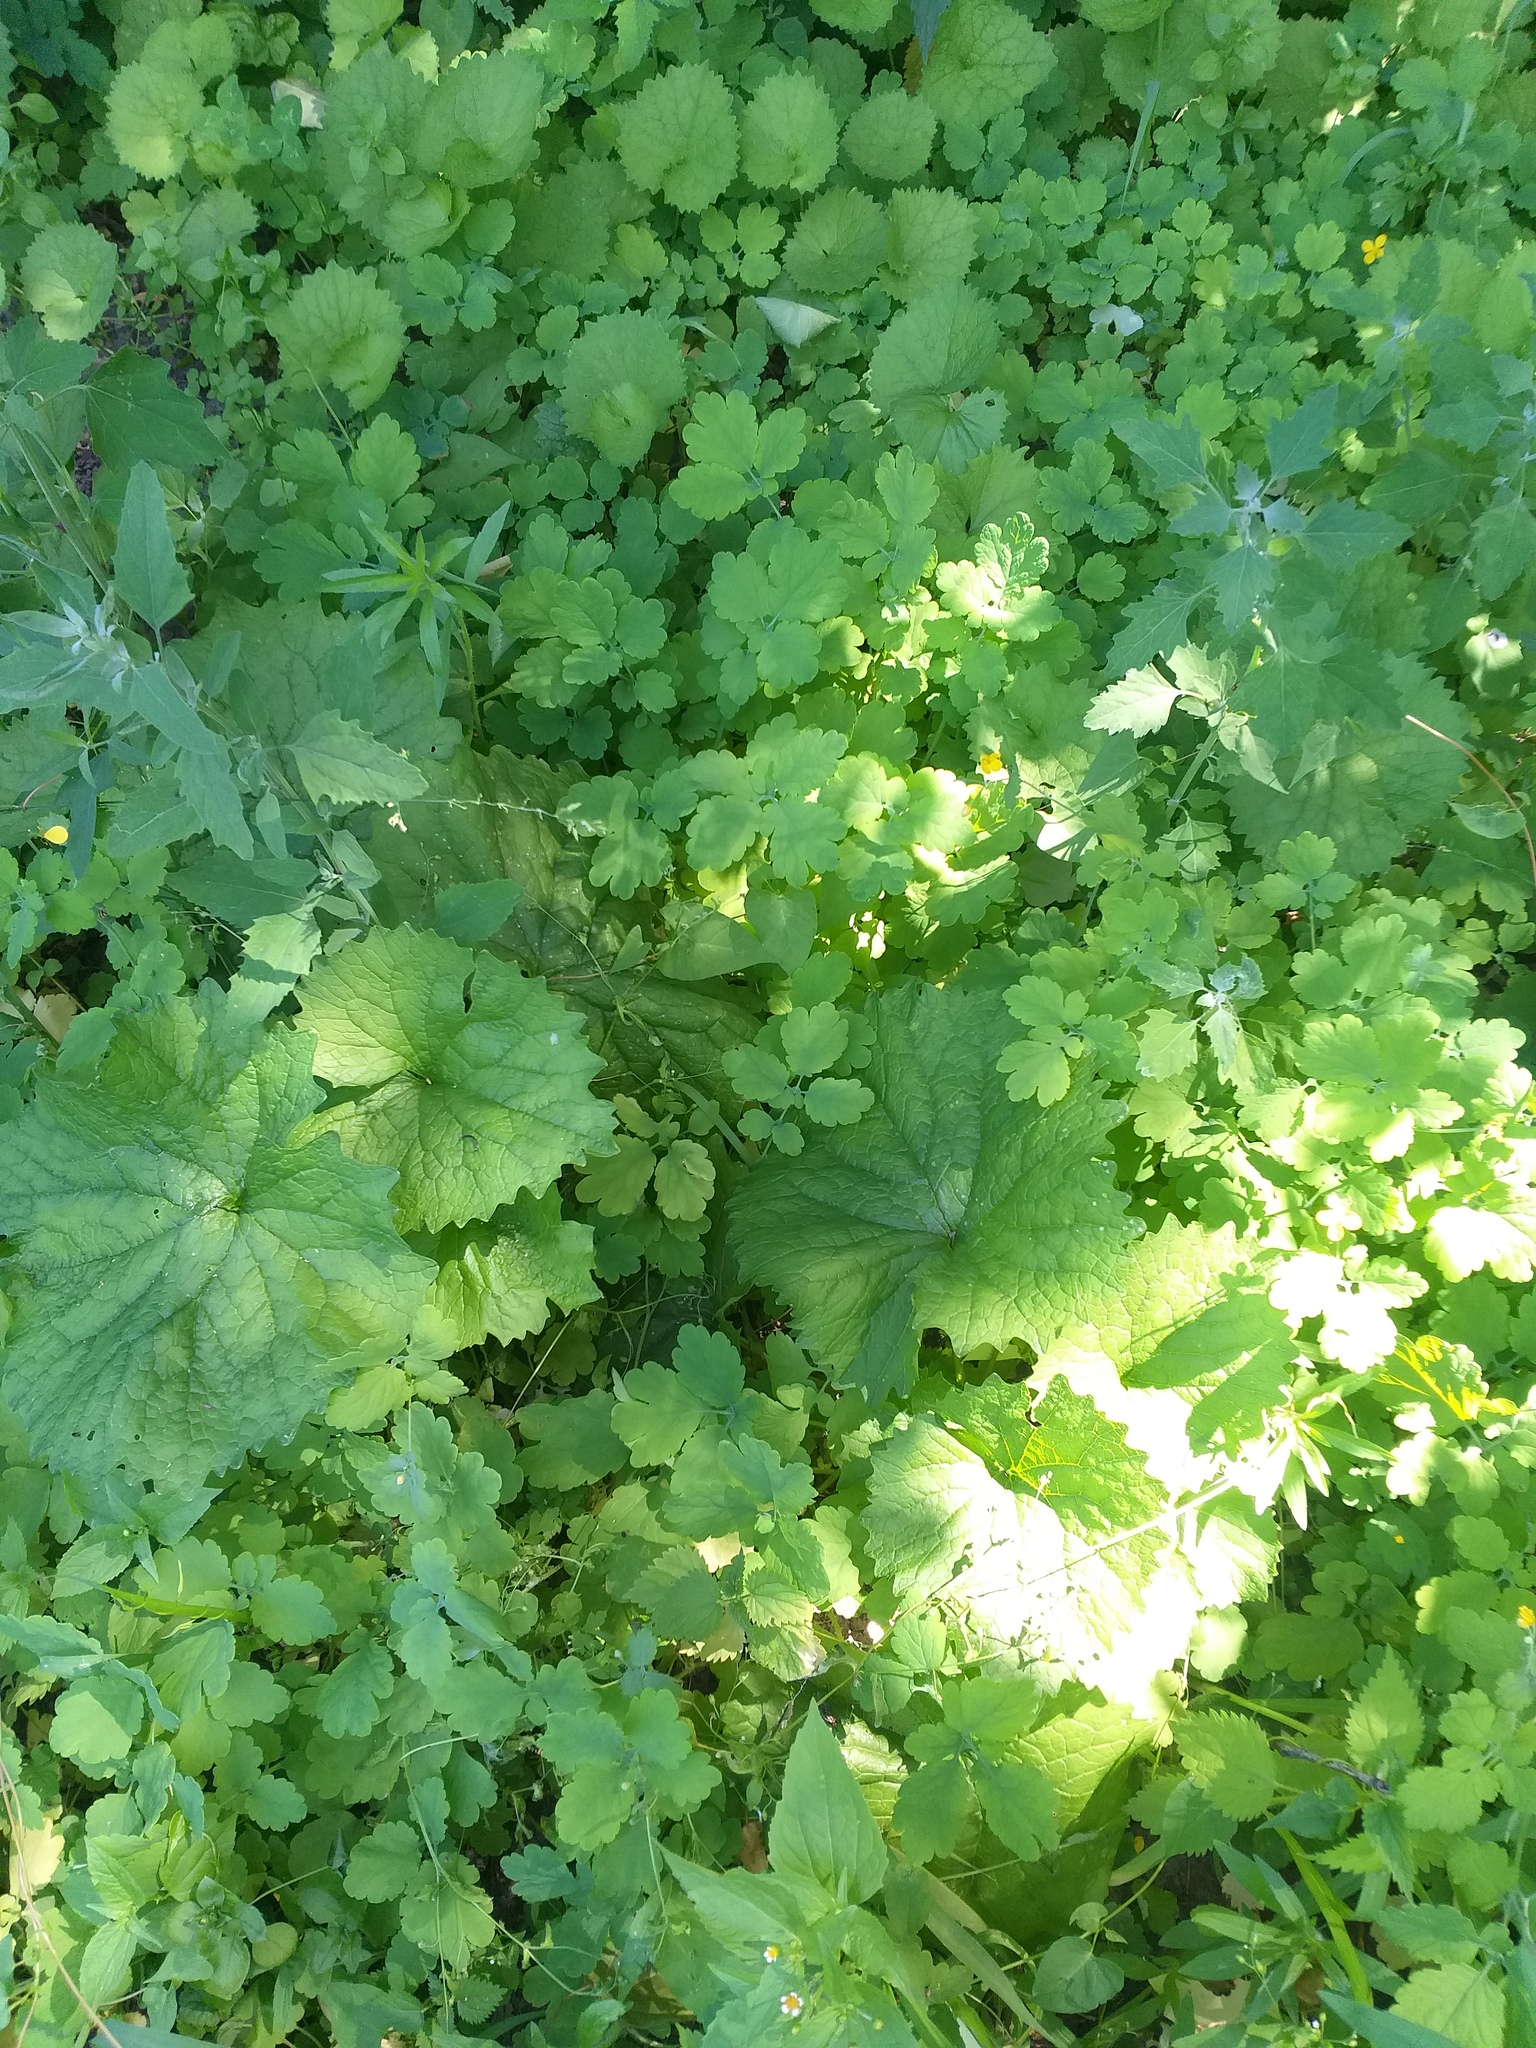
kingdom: Plantae
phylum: Tracheophyta
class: Magnoliopsida
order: Asterales
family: Campanulaceae
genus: Campanula
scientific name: Campanula trachelium
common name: Nettle-leaved bellflower
